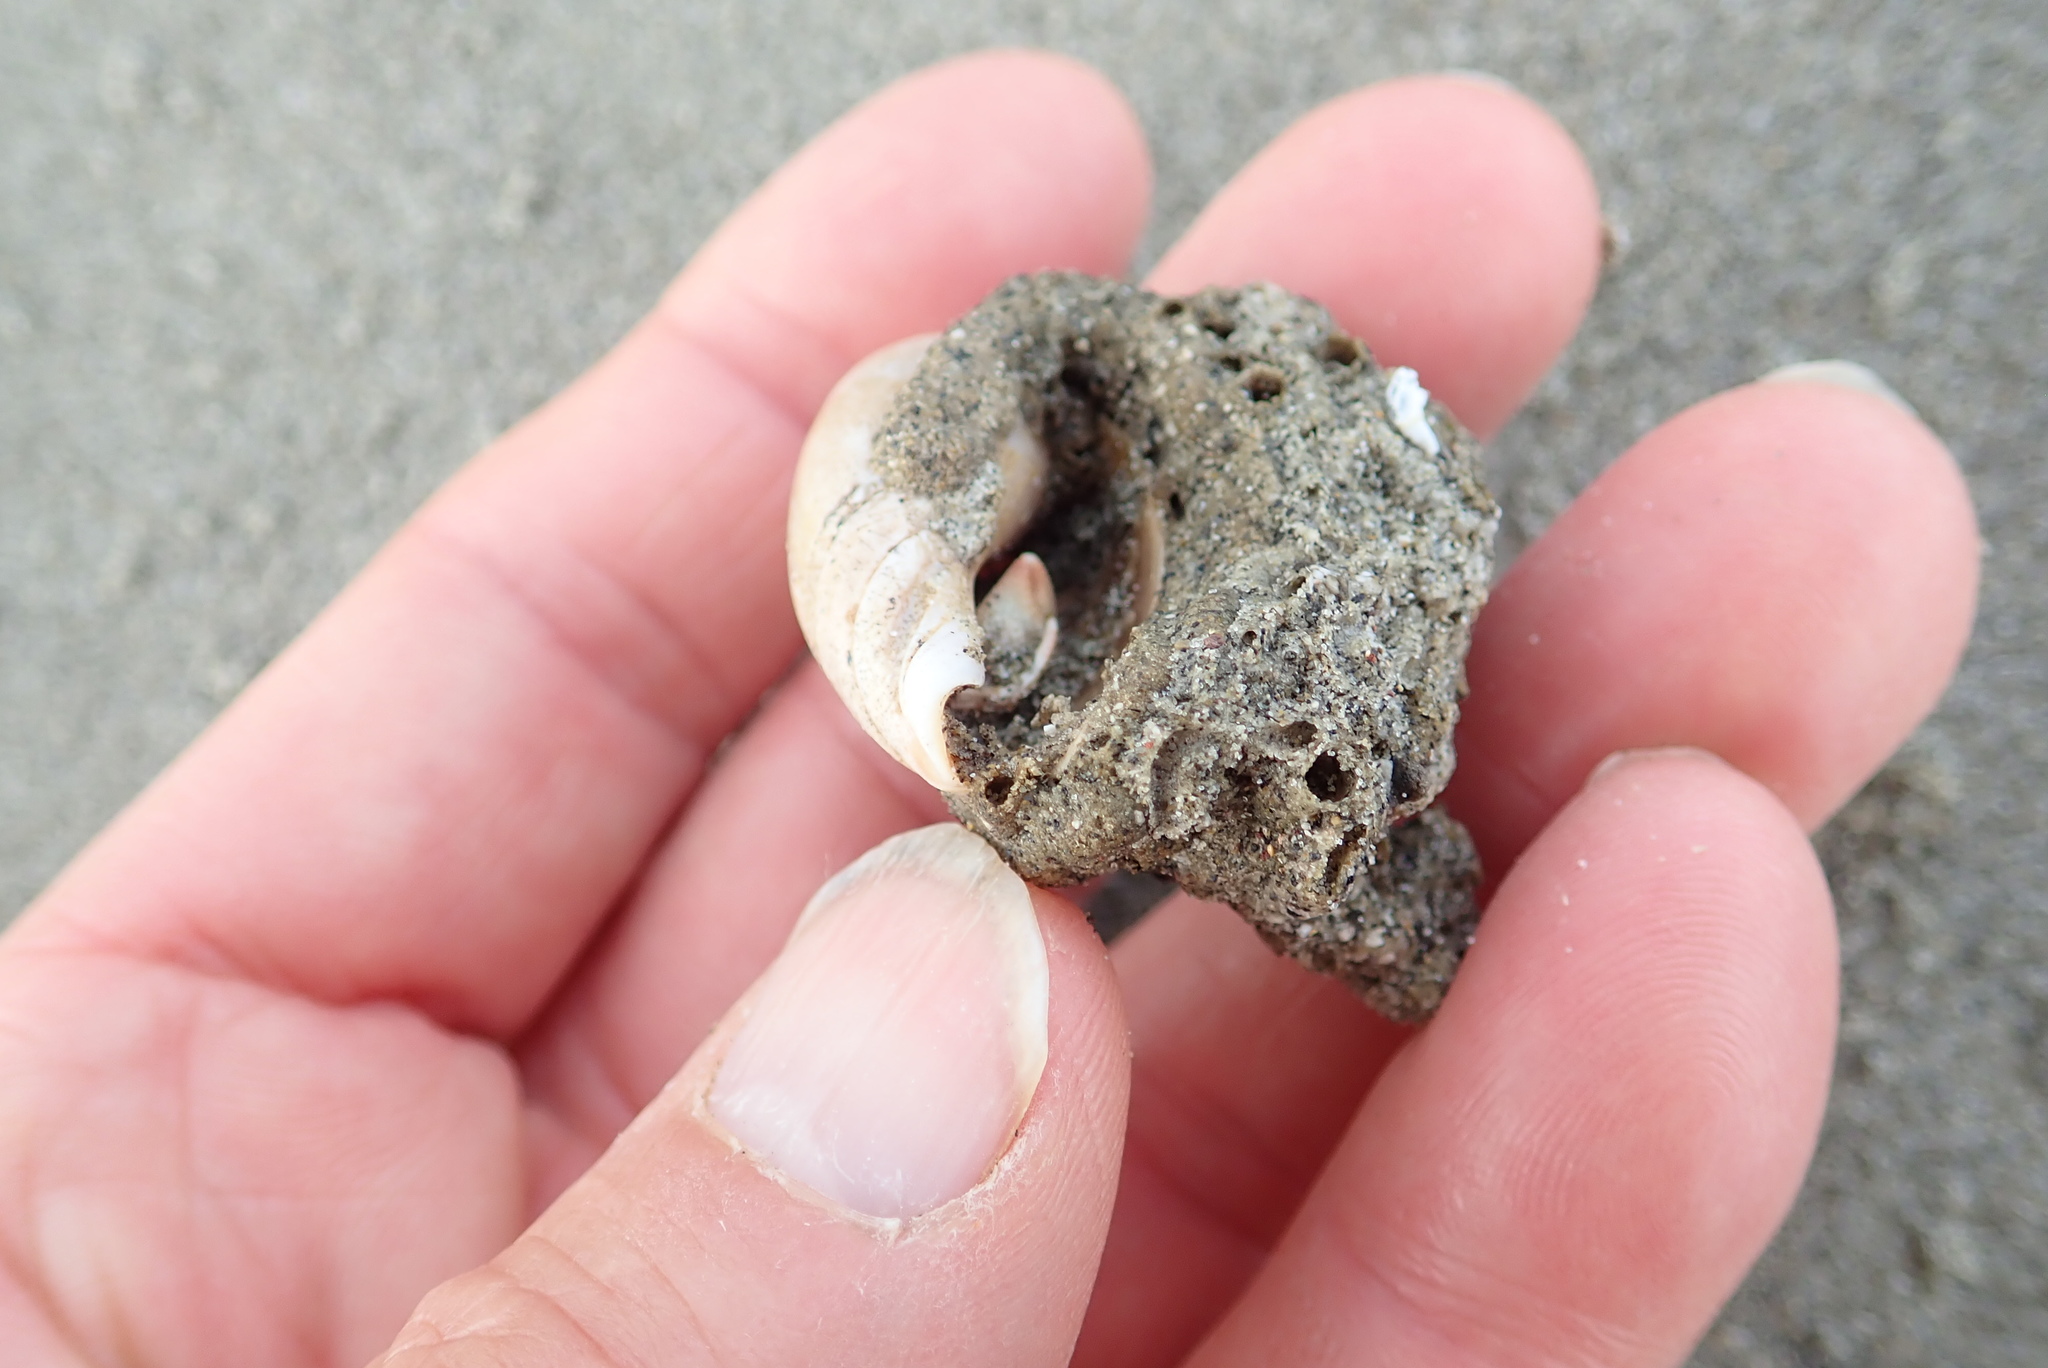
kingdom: Animalia
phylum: Mollusca
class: Gastropoda
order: Neogastropoda
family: Ancillariidae
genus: Amalda
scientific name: Amalda mucronata
